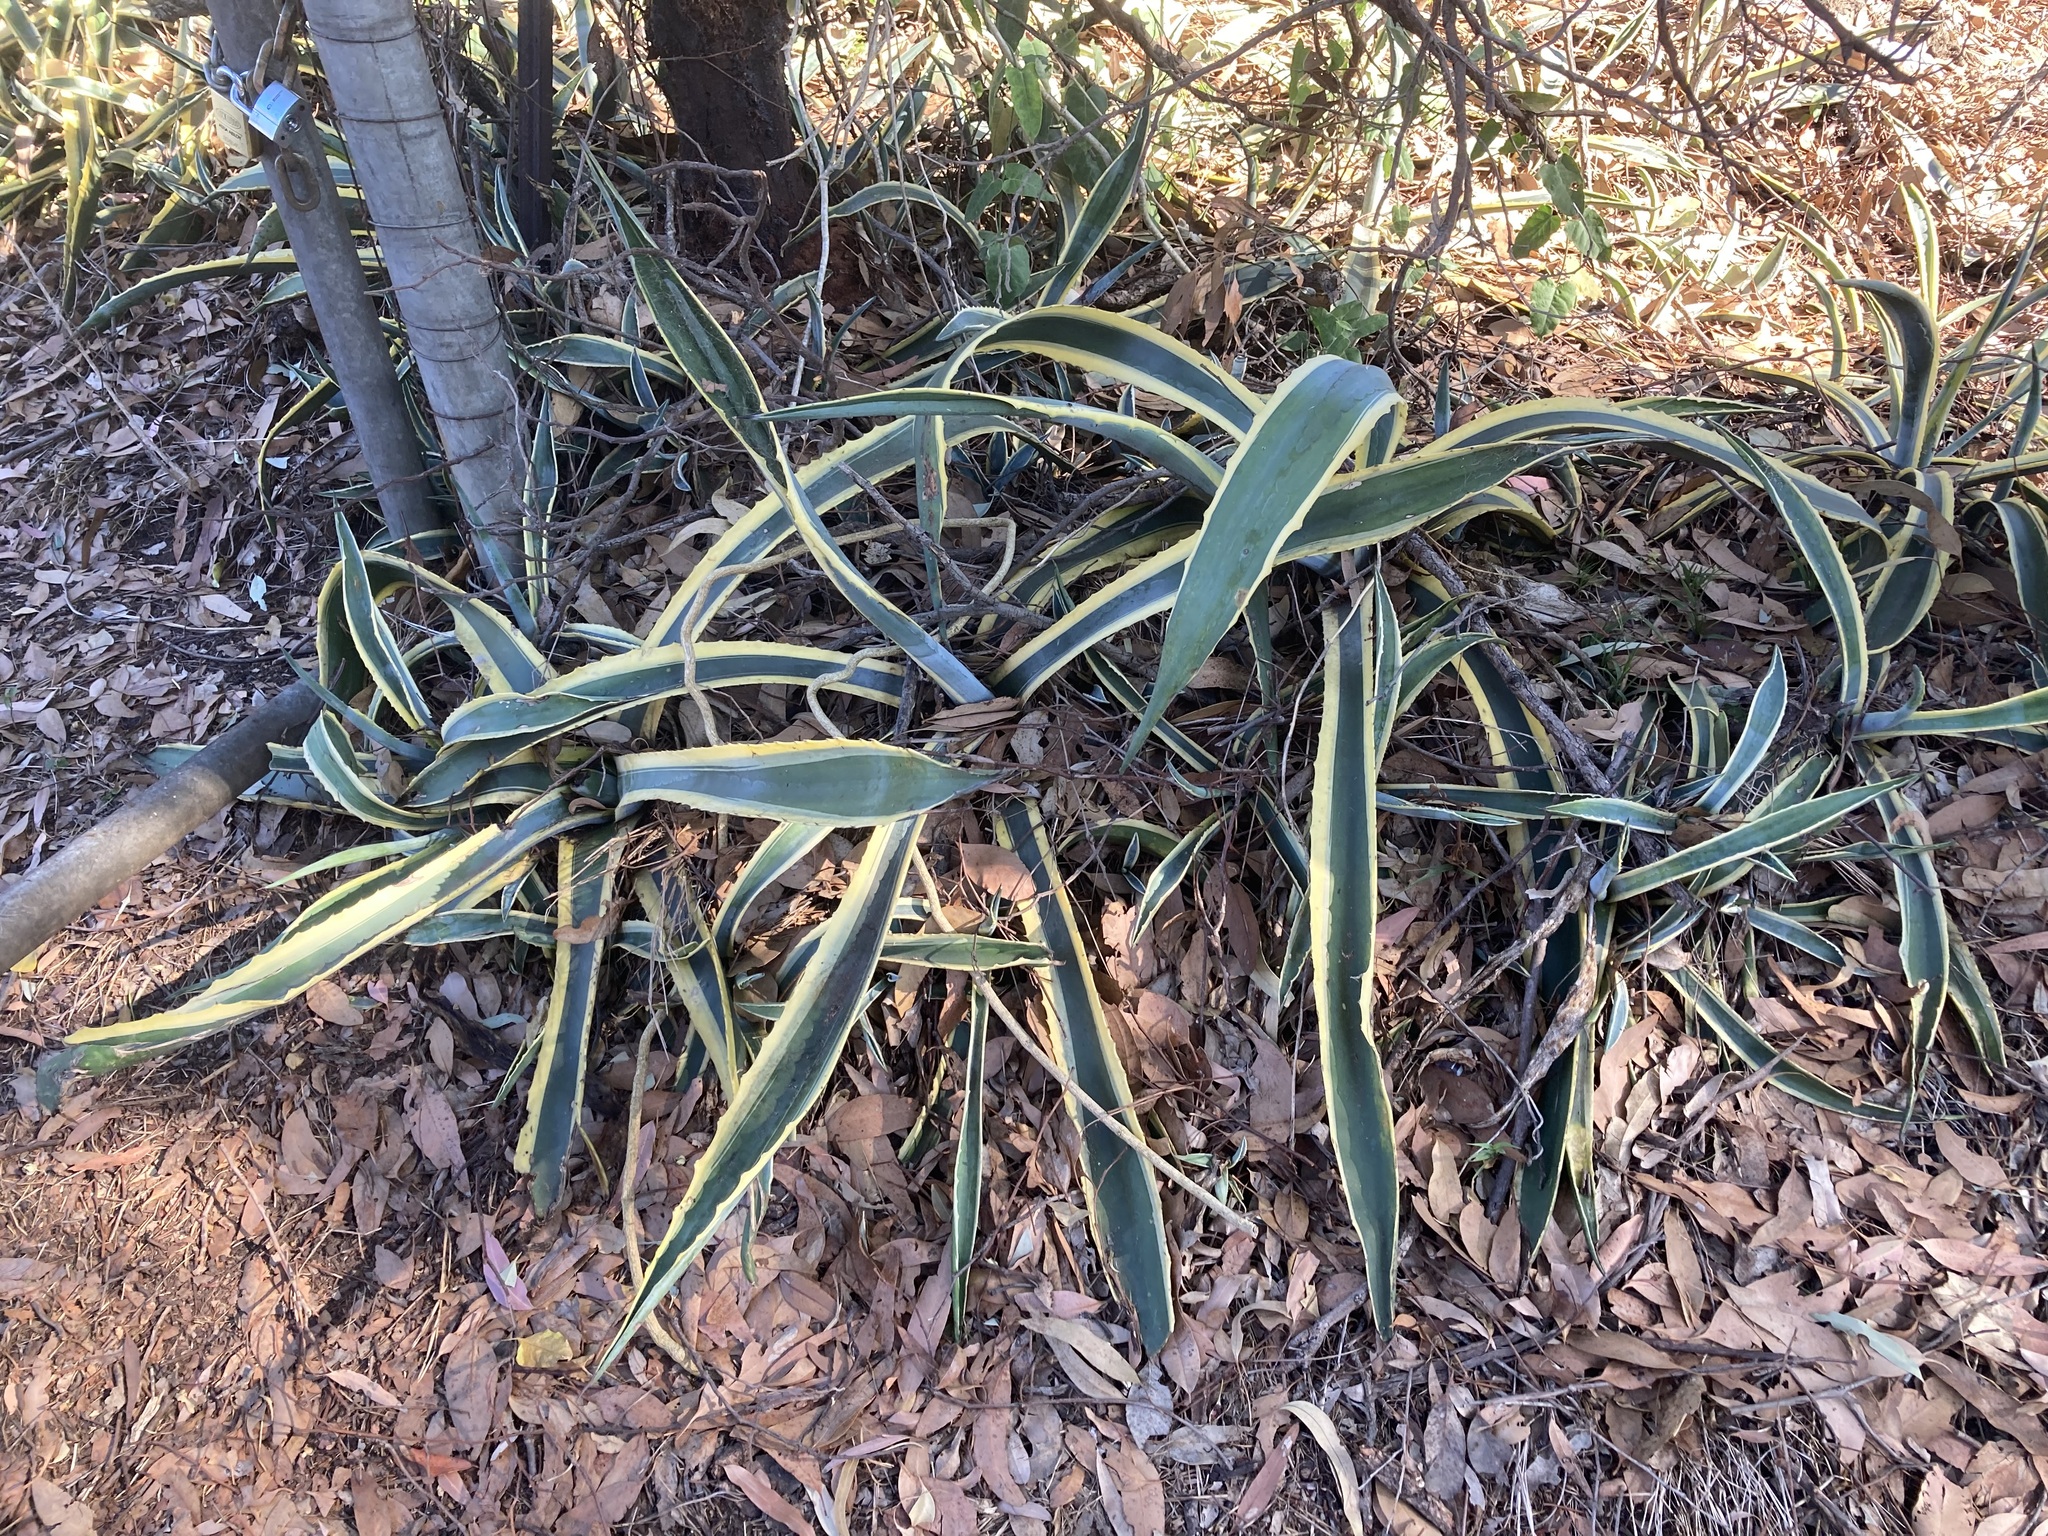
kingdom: Plantae
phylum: Tracheophyta
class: Liliopsida
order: Asparagales
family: Asparagaceae
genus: Agave
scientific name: Agave americana
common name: Centuryplant
